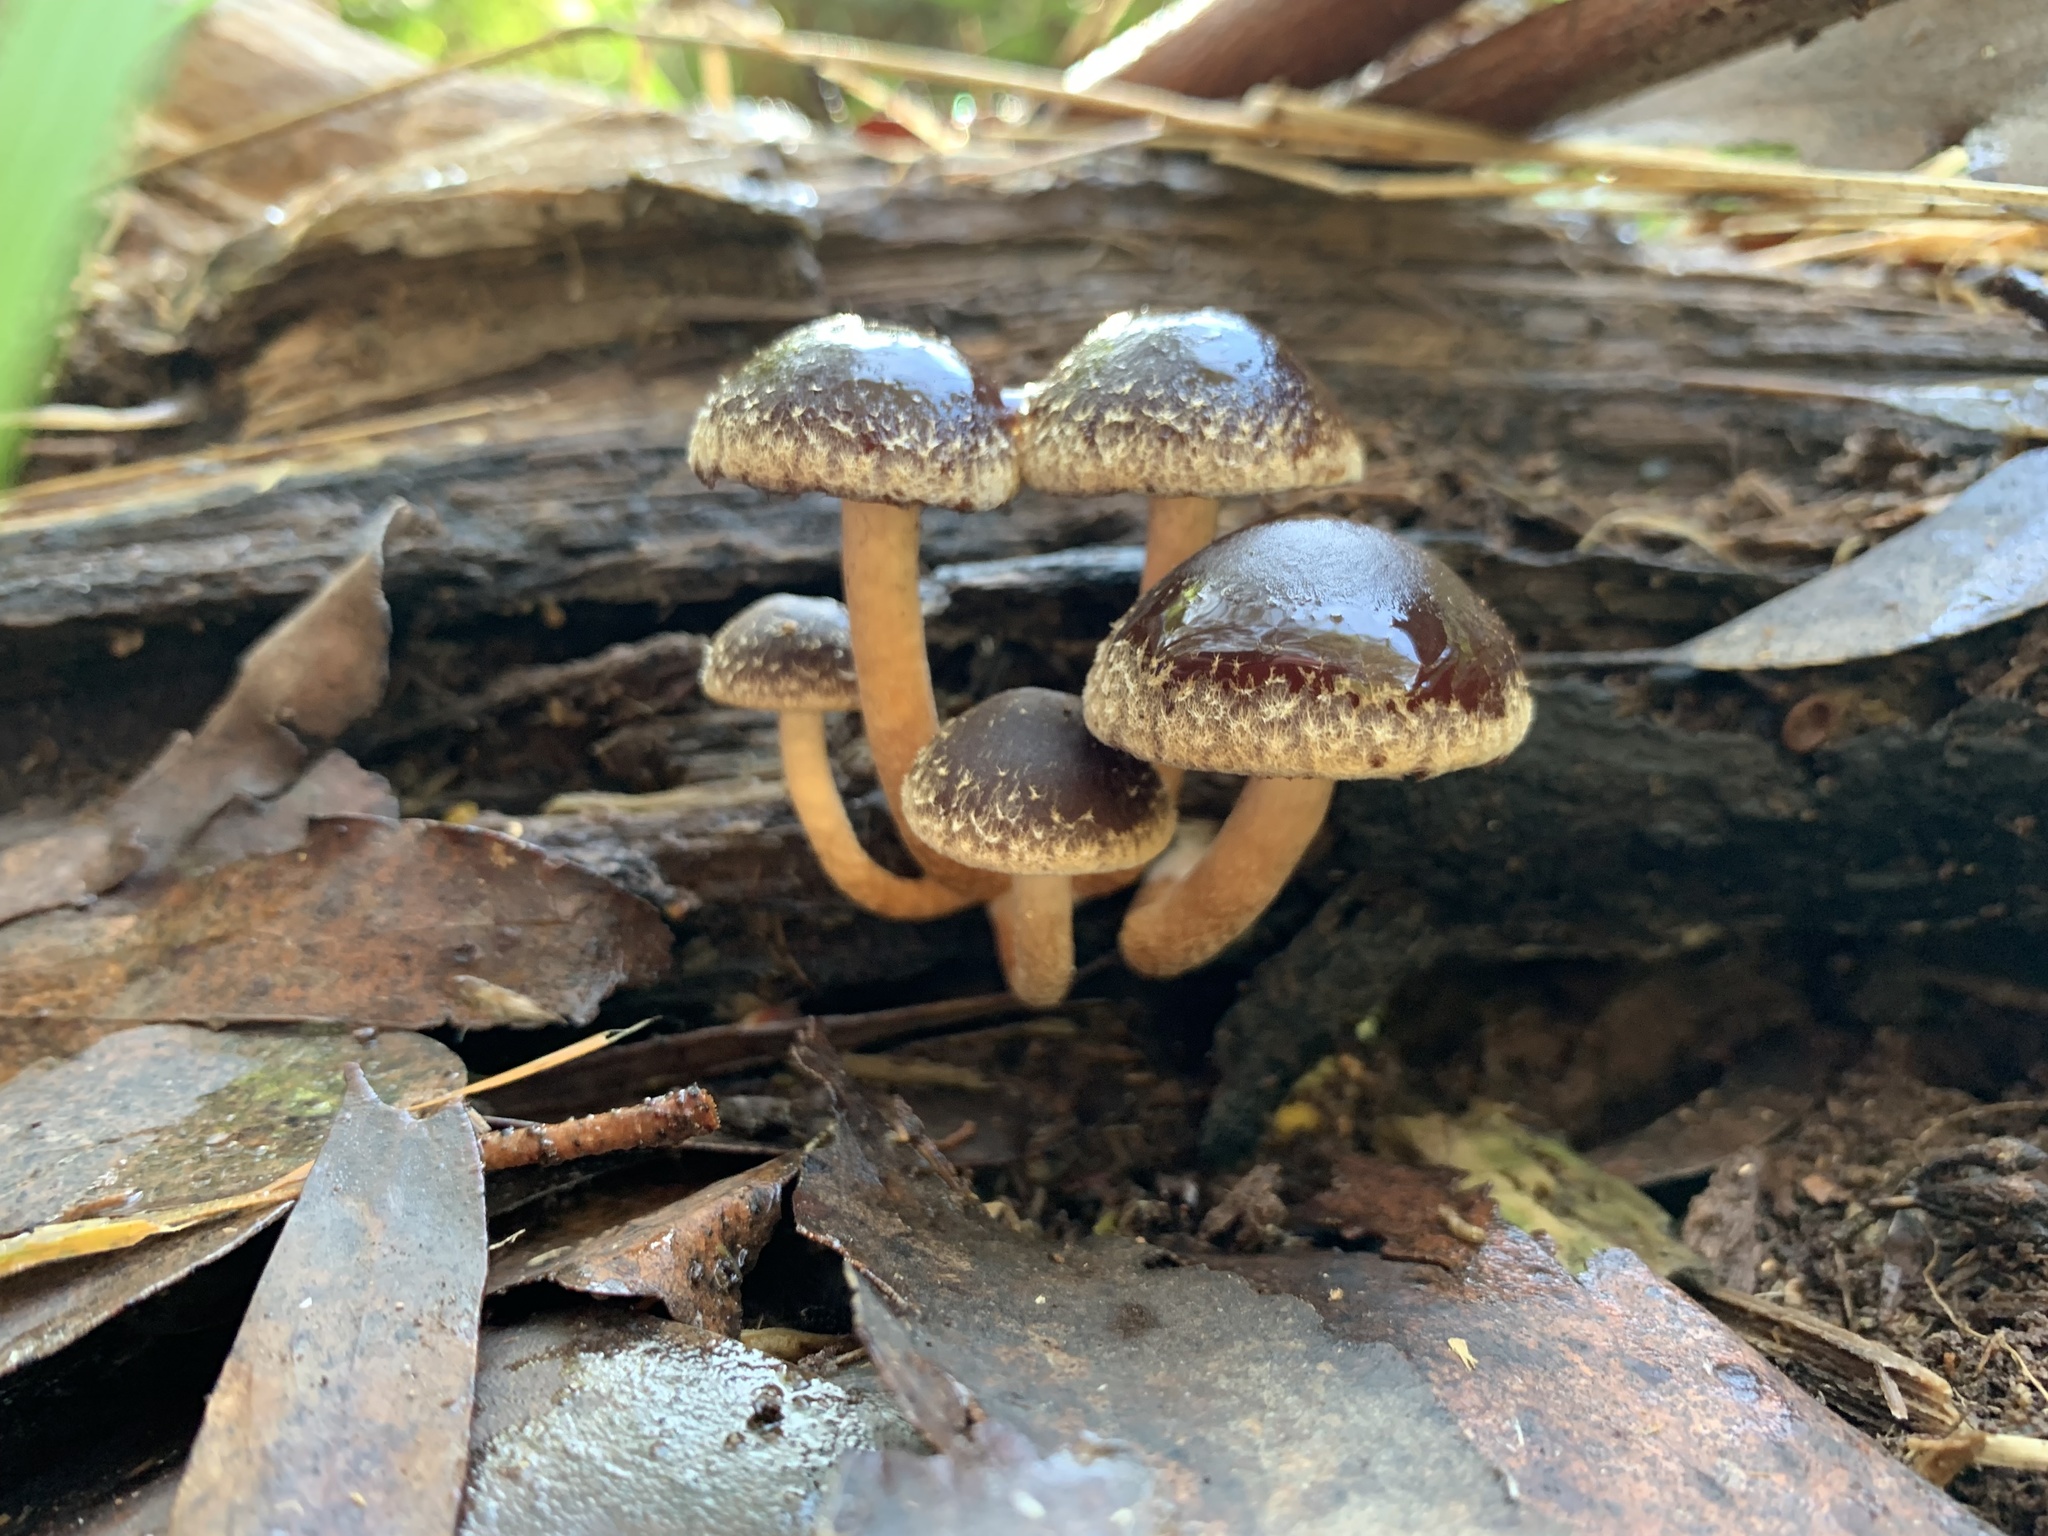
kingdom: Fungi
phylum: Basidiomycota
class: Agaricomycetes
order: Agaricales
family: Strophariaceae
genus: Hypholoma
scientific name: Hypholoma brunneum
